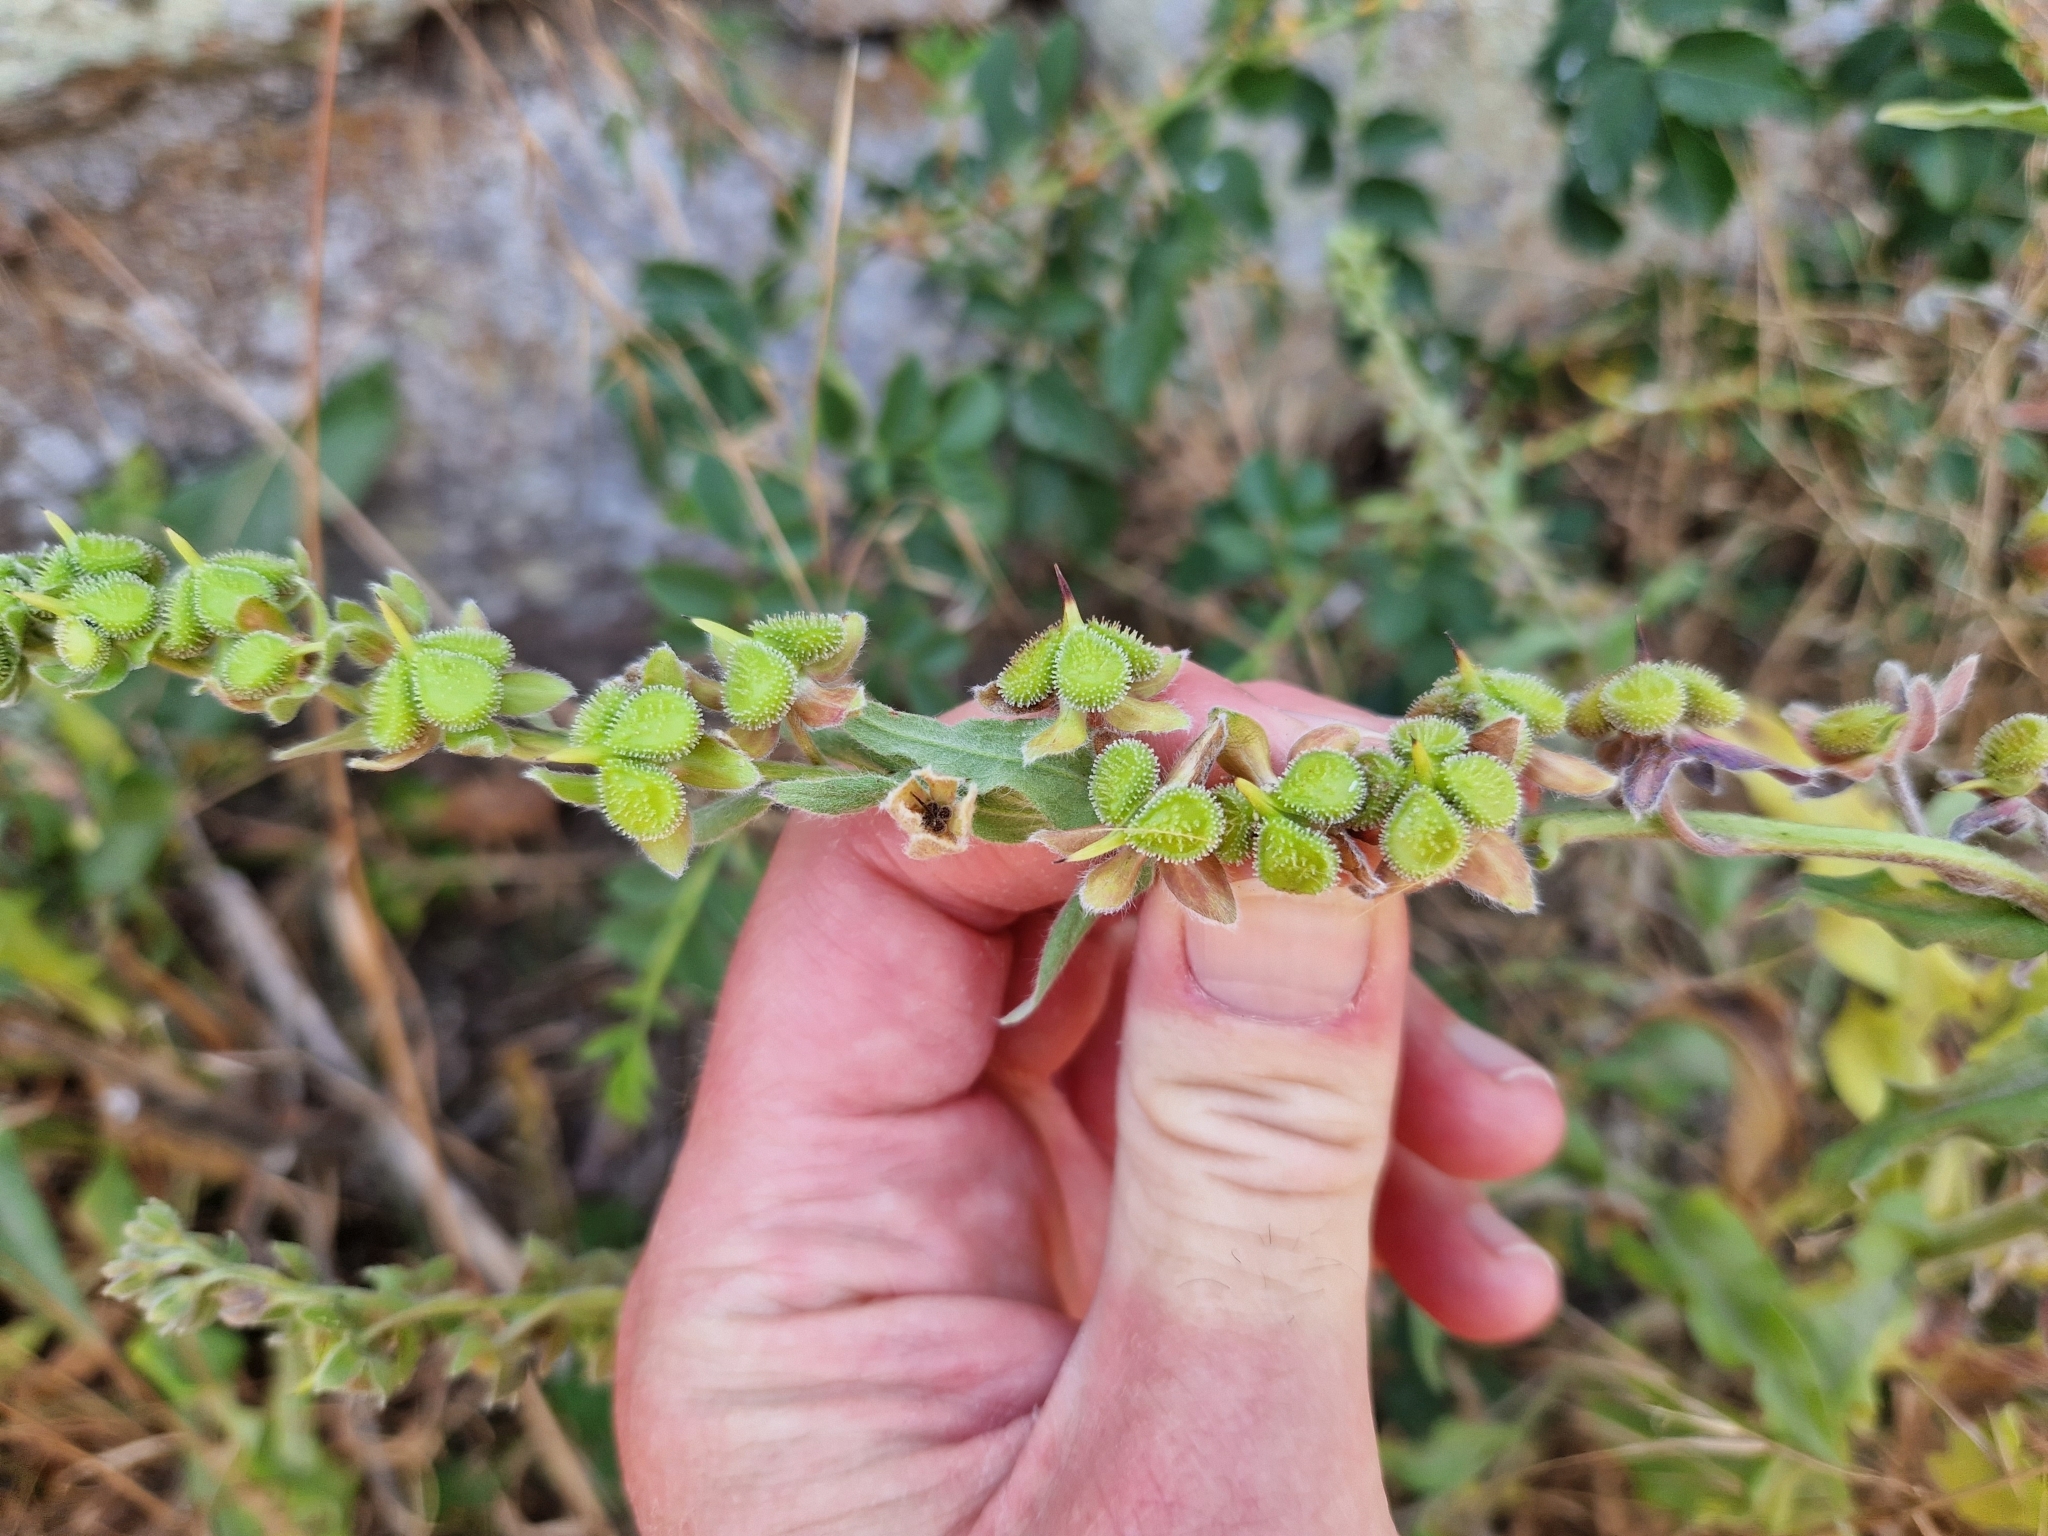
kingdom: Plantae
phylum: Tracheophyta
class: Magnoliopsida
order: Boraginales
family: Boraginaceae
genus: Cynoglossum
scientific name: Cynoglossum officinale
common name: Hound's-tongue
